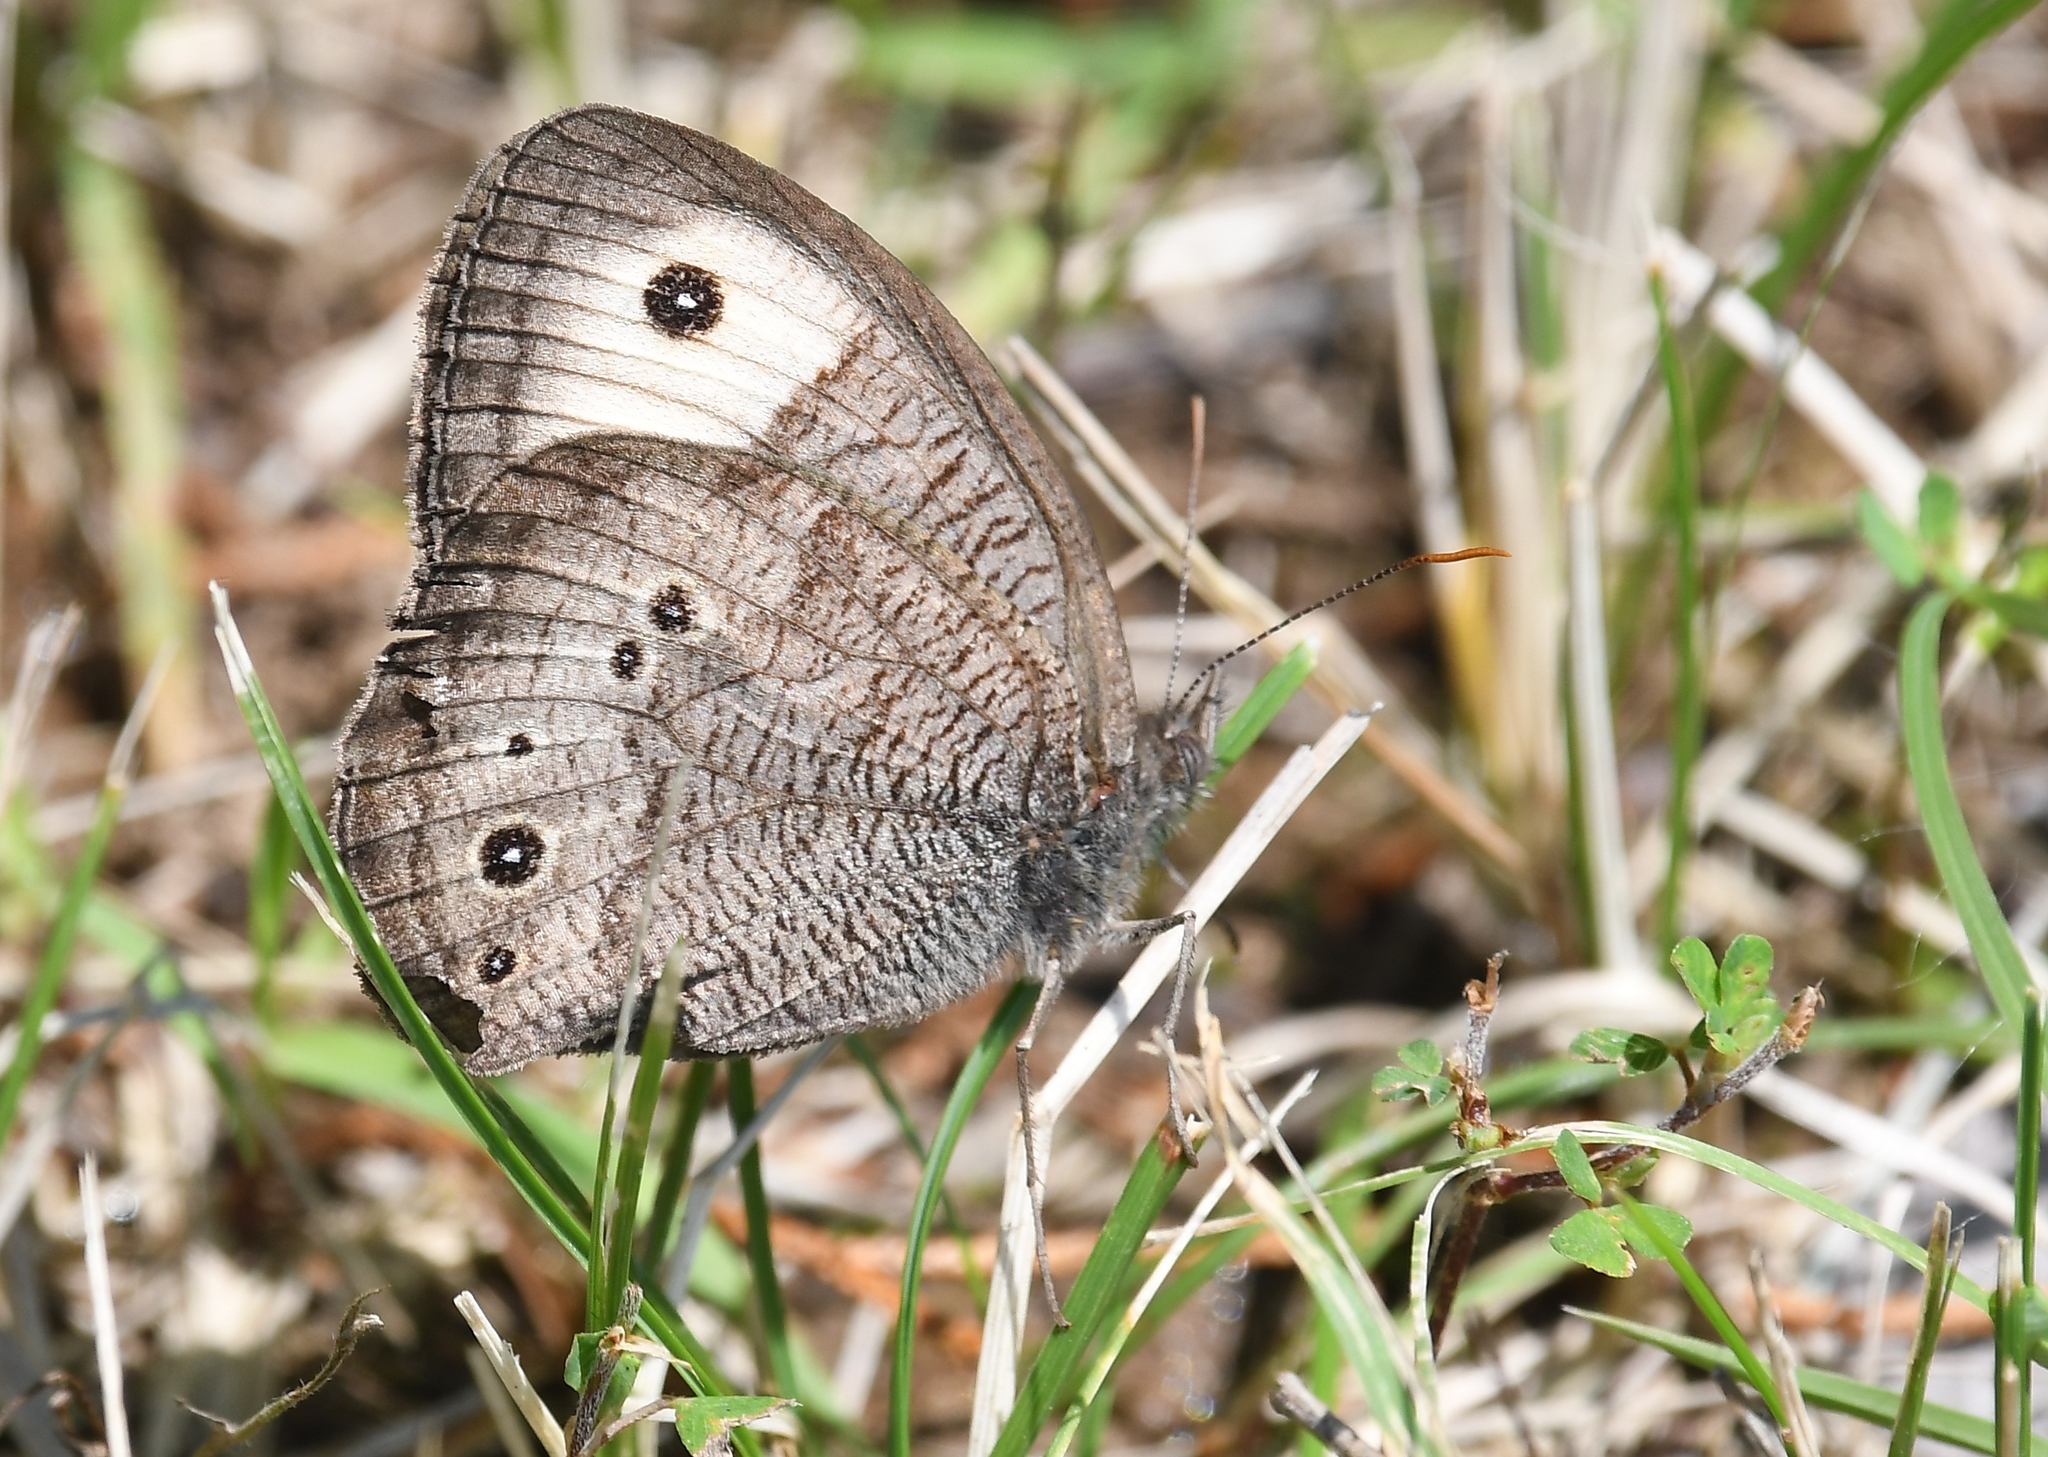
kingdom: Animalia
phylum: Arthropoda
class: Insecta
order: Lepidoptera
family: Nymphalidae
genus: Cercyonis
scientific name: Cercyonis pegala
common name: Common wood-nymph
